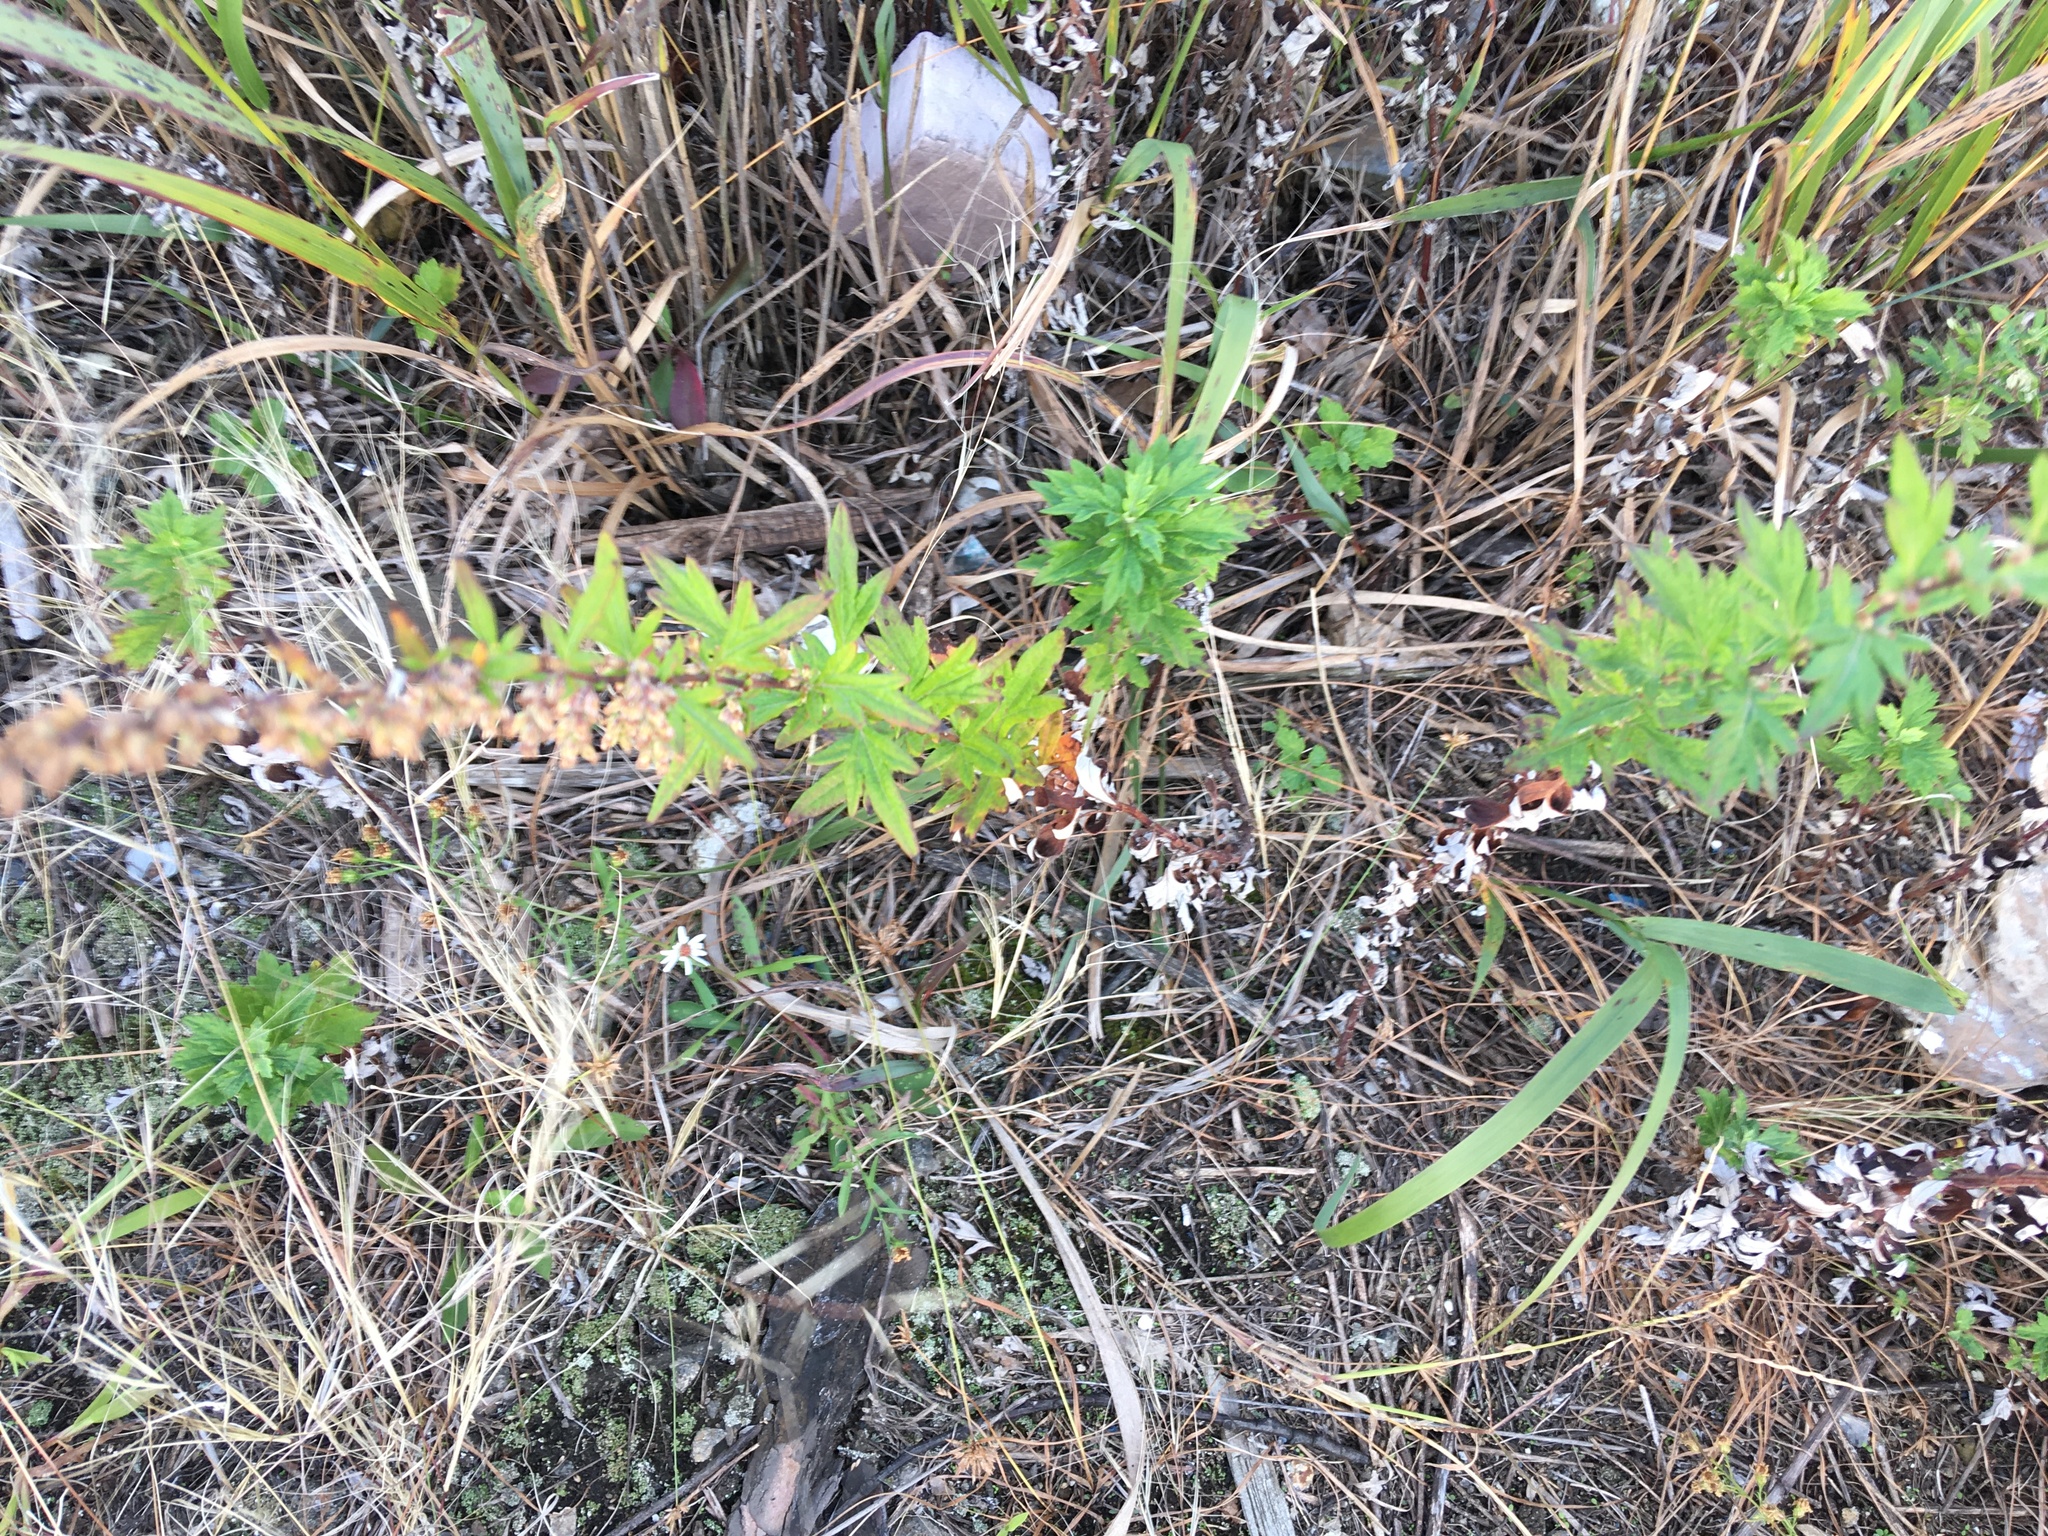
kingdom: Plantae
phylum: Tracheophyta
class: Magnoliopsida
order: Asterales
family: Asteraceae
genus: Artemisia
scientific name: Artemisia vulgaris
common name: Mugwort
